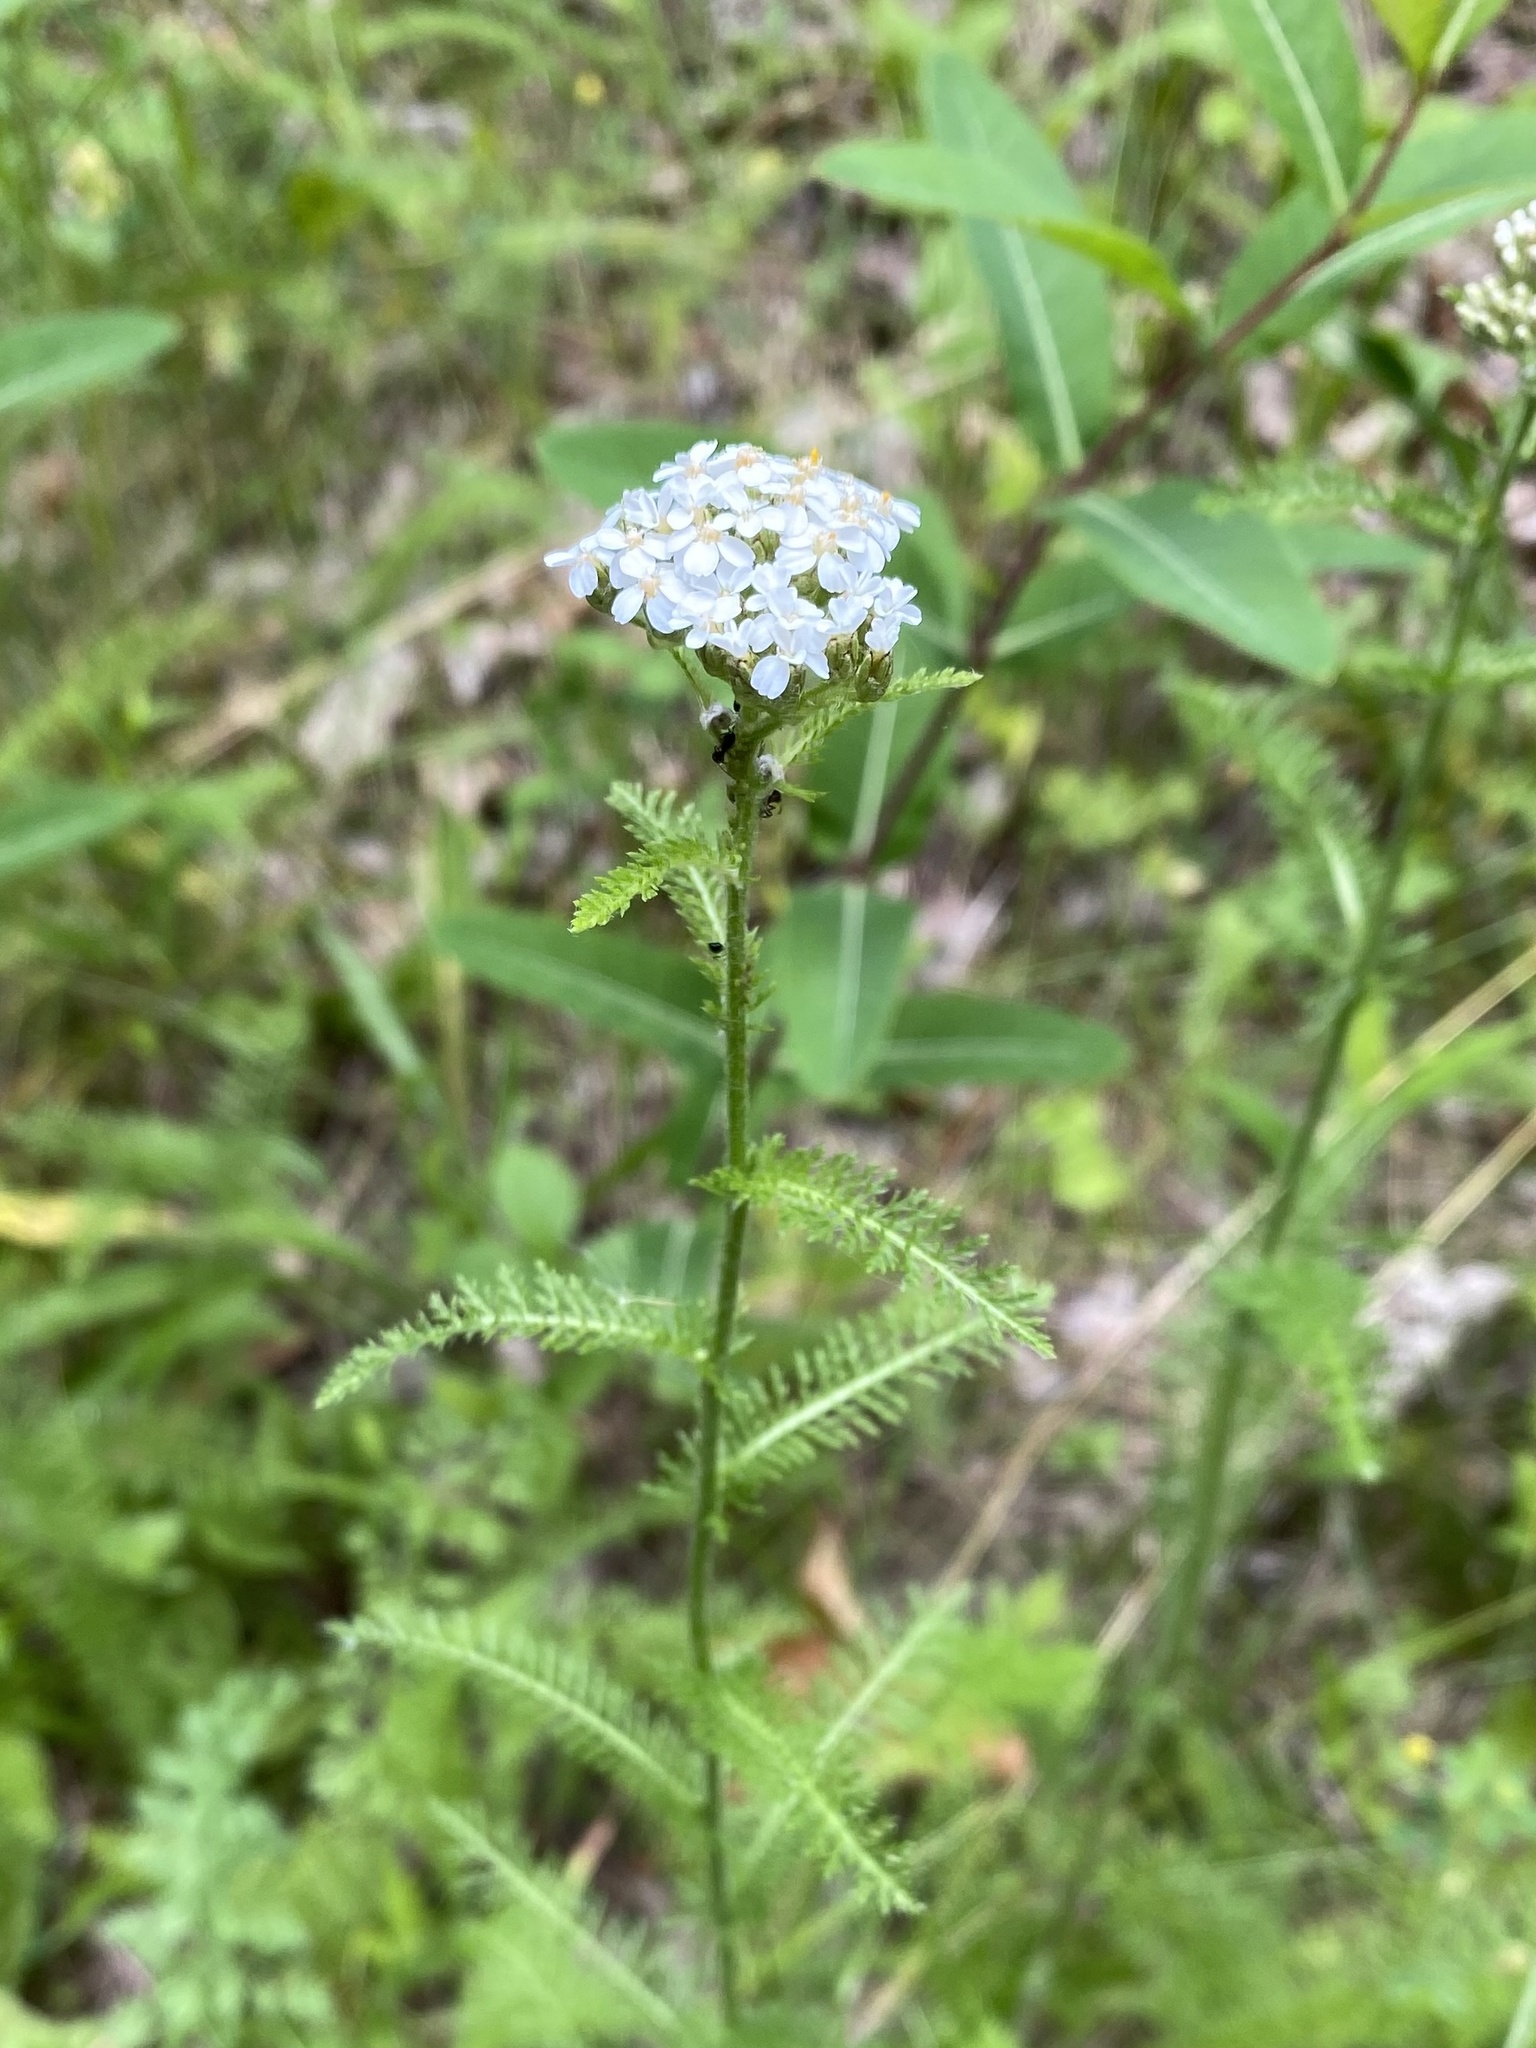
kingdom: Plantae
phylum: Tracheophyta
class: Magnoliopsida
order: Asterales
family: Asteraceae
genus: Achillea
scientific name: Achillea millefolium
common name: Yarrow
